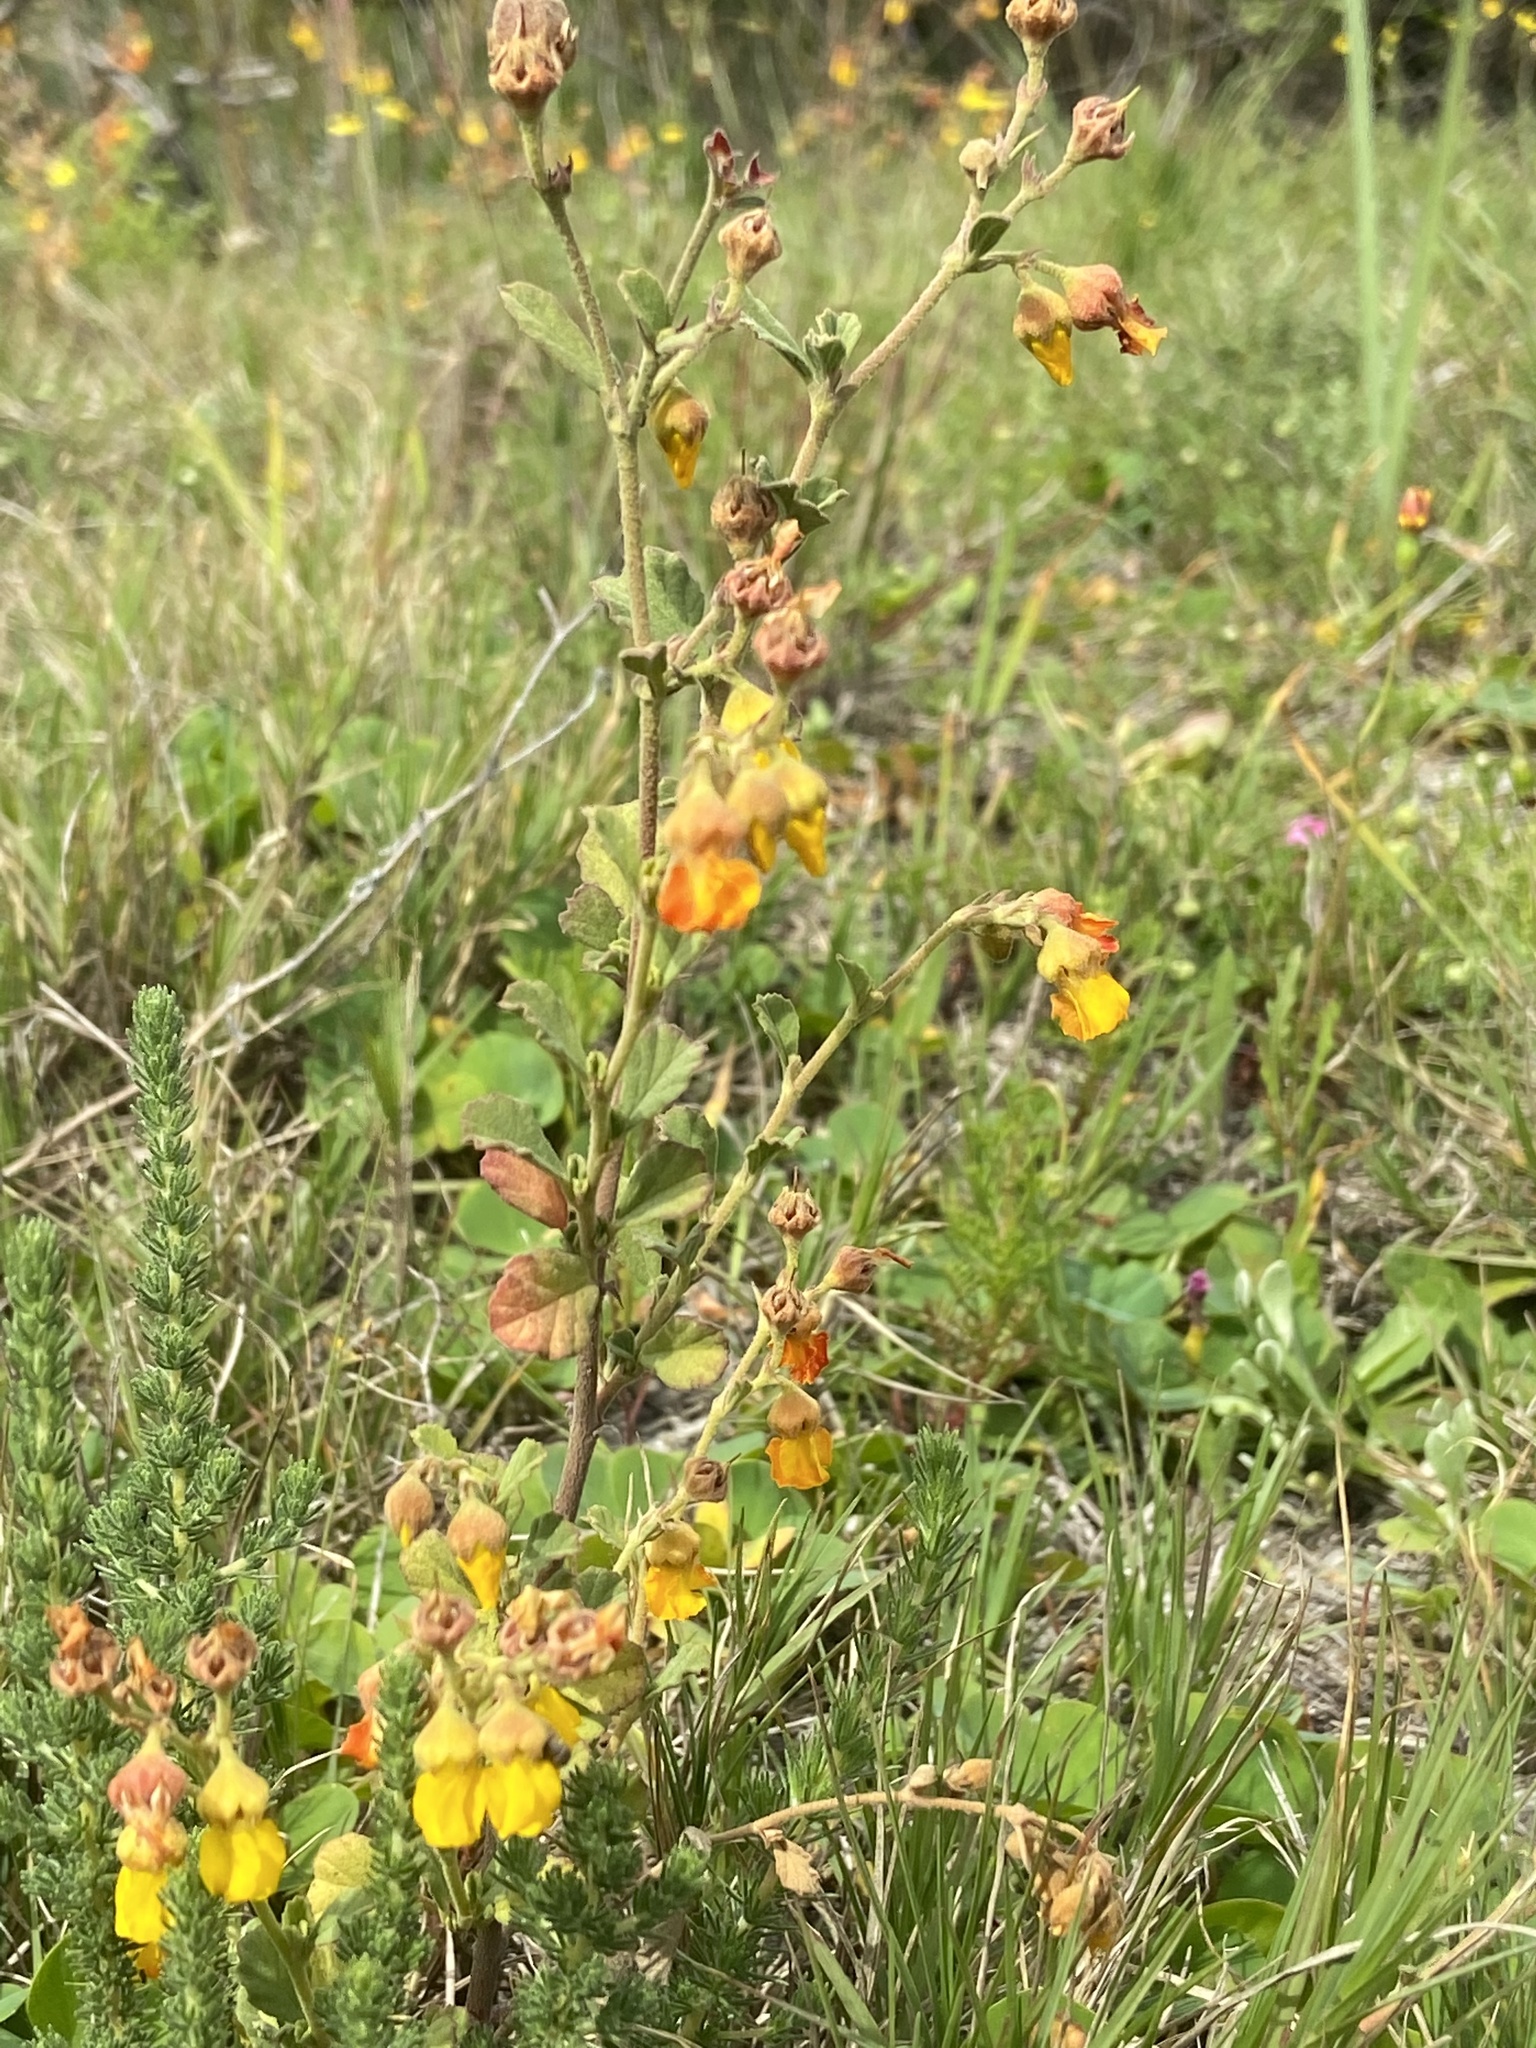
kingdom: Plantae
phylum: Tracheophyta
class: Magnoliopsida
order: Malvales
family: Malvaceae
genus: Hermannia
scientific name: Hermannia multiflora
